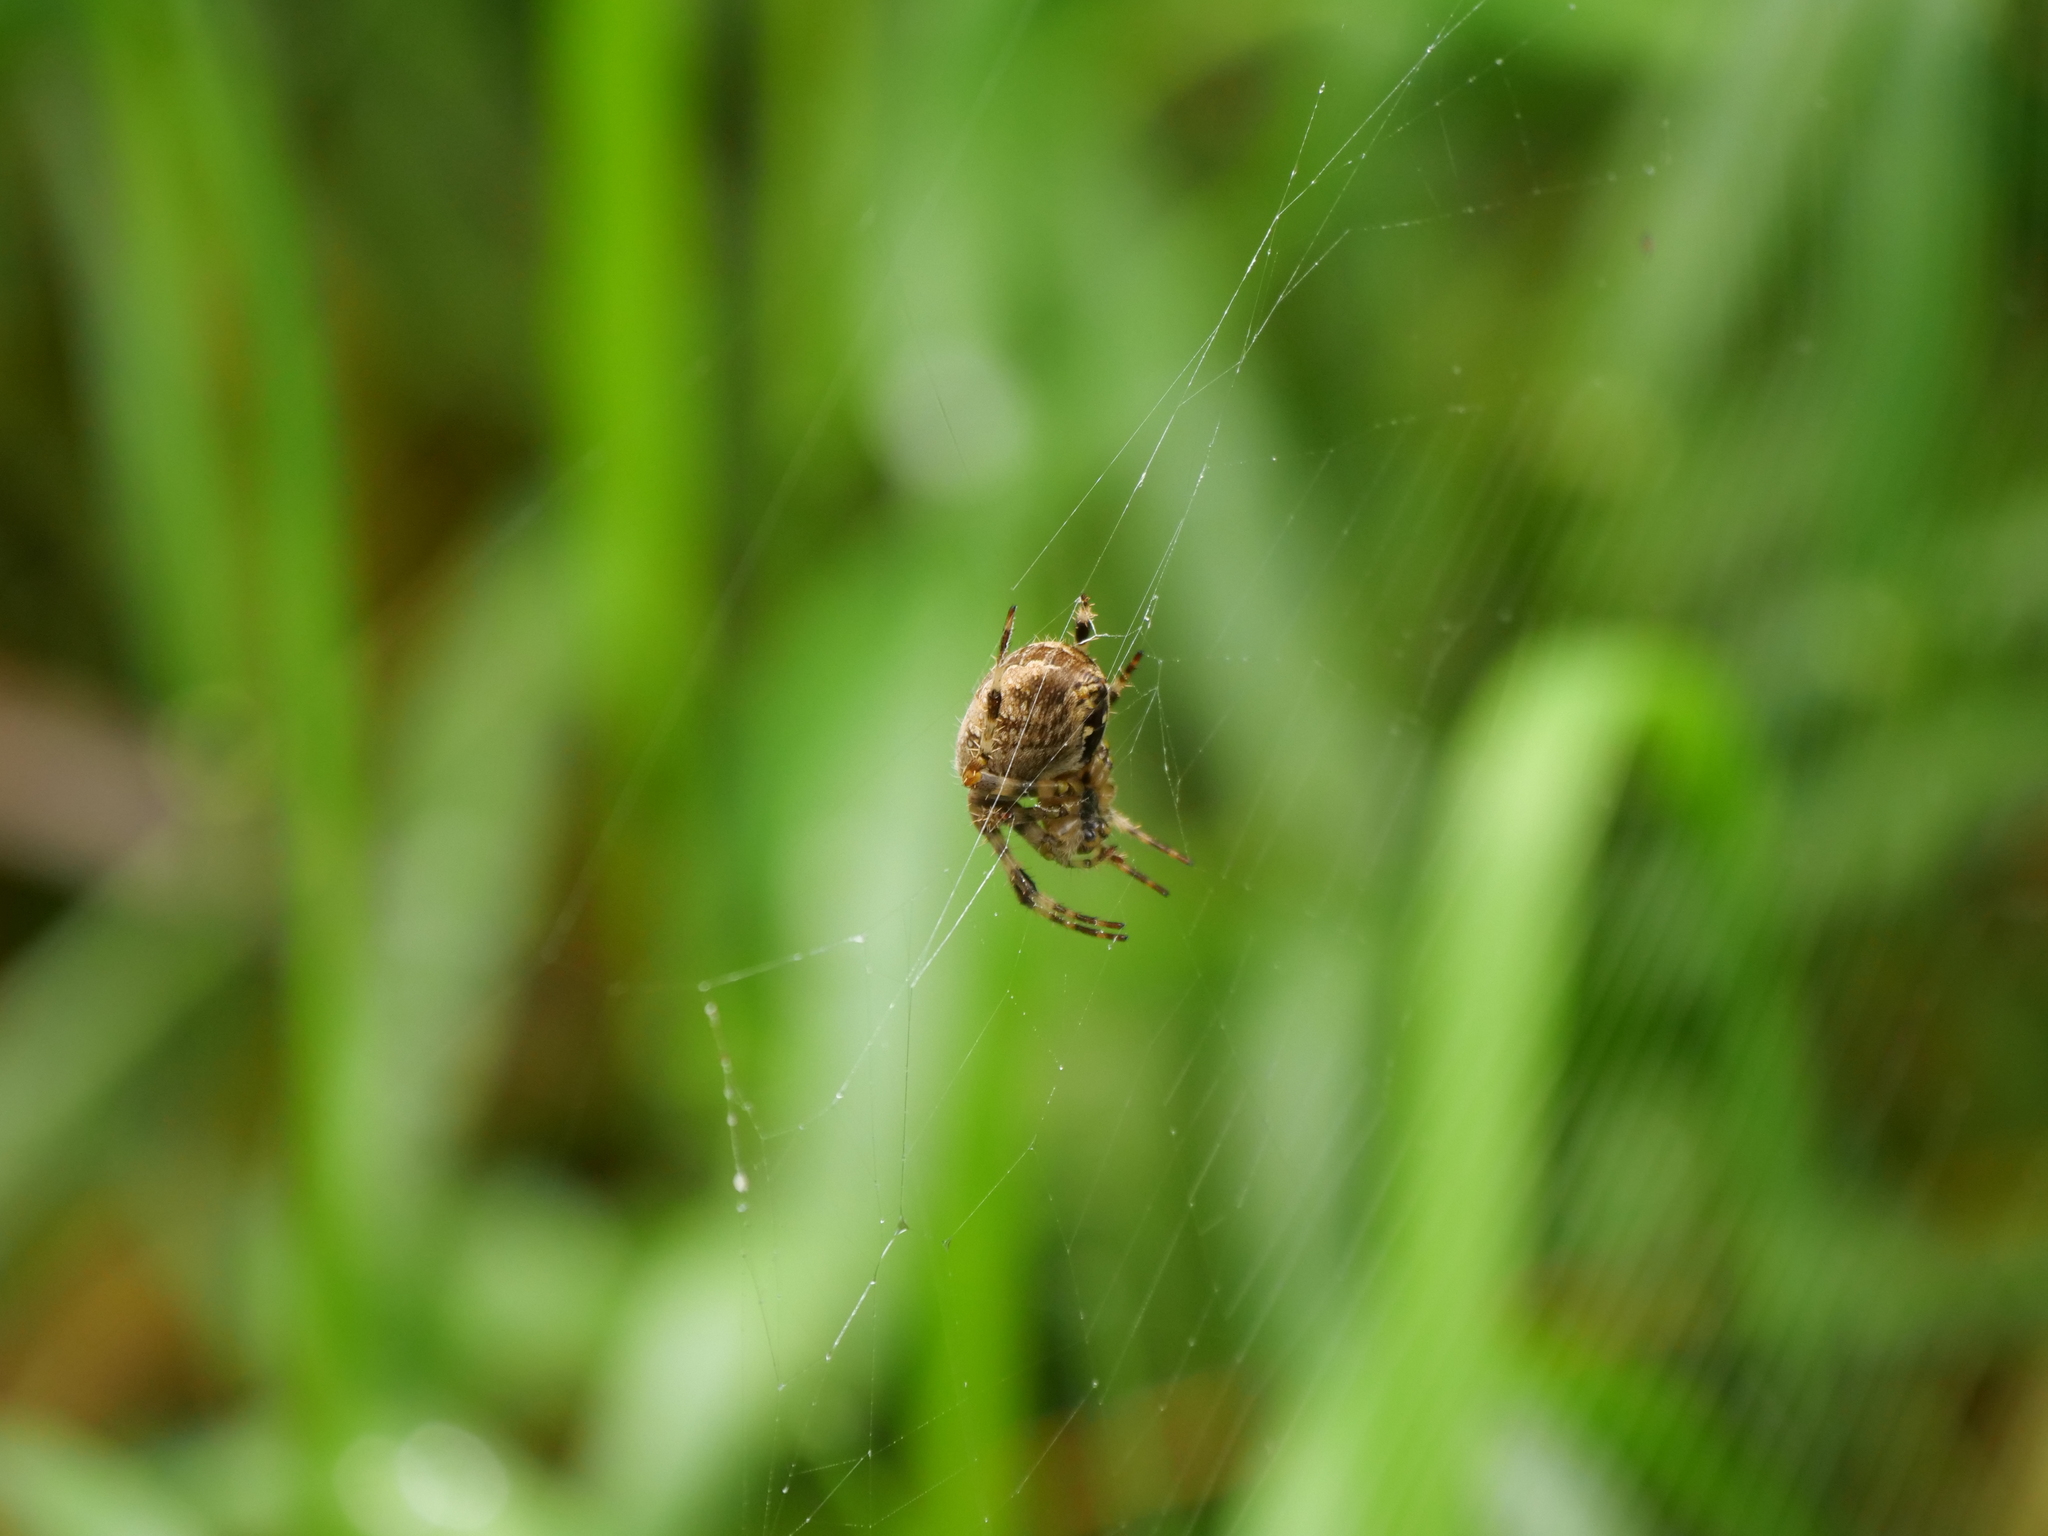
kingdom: Animalia
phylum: Arthropoda
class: Arachnida
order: Araneae
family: Araneidae
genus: Araneus
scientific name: Araneus diadematus
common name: Cross orbweaver
